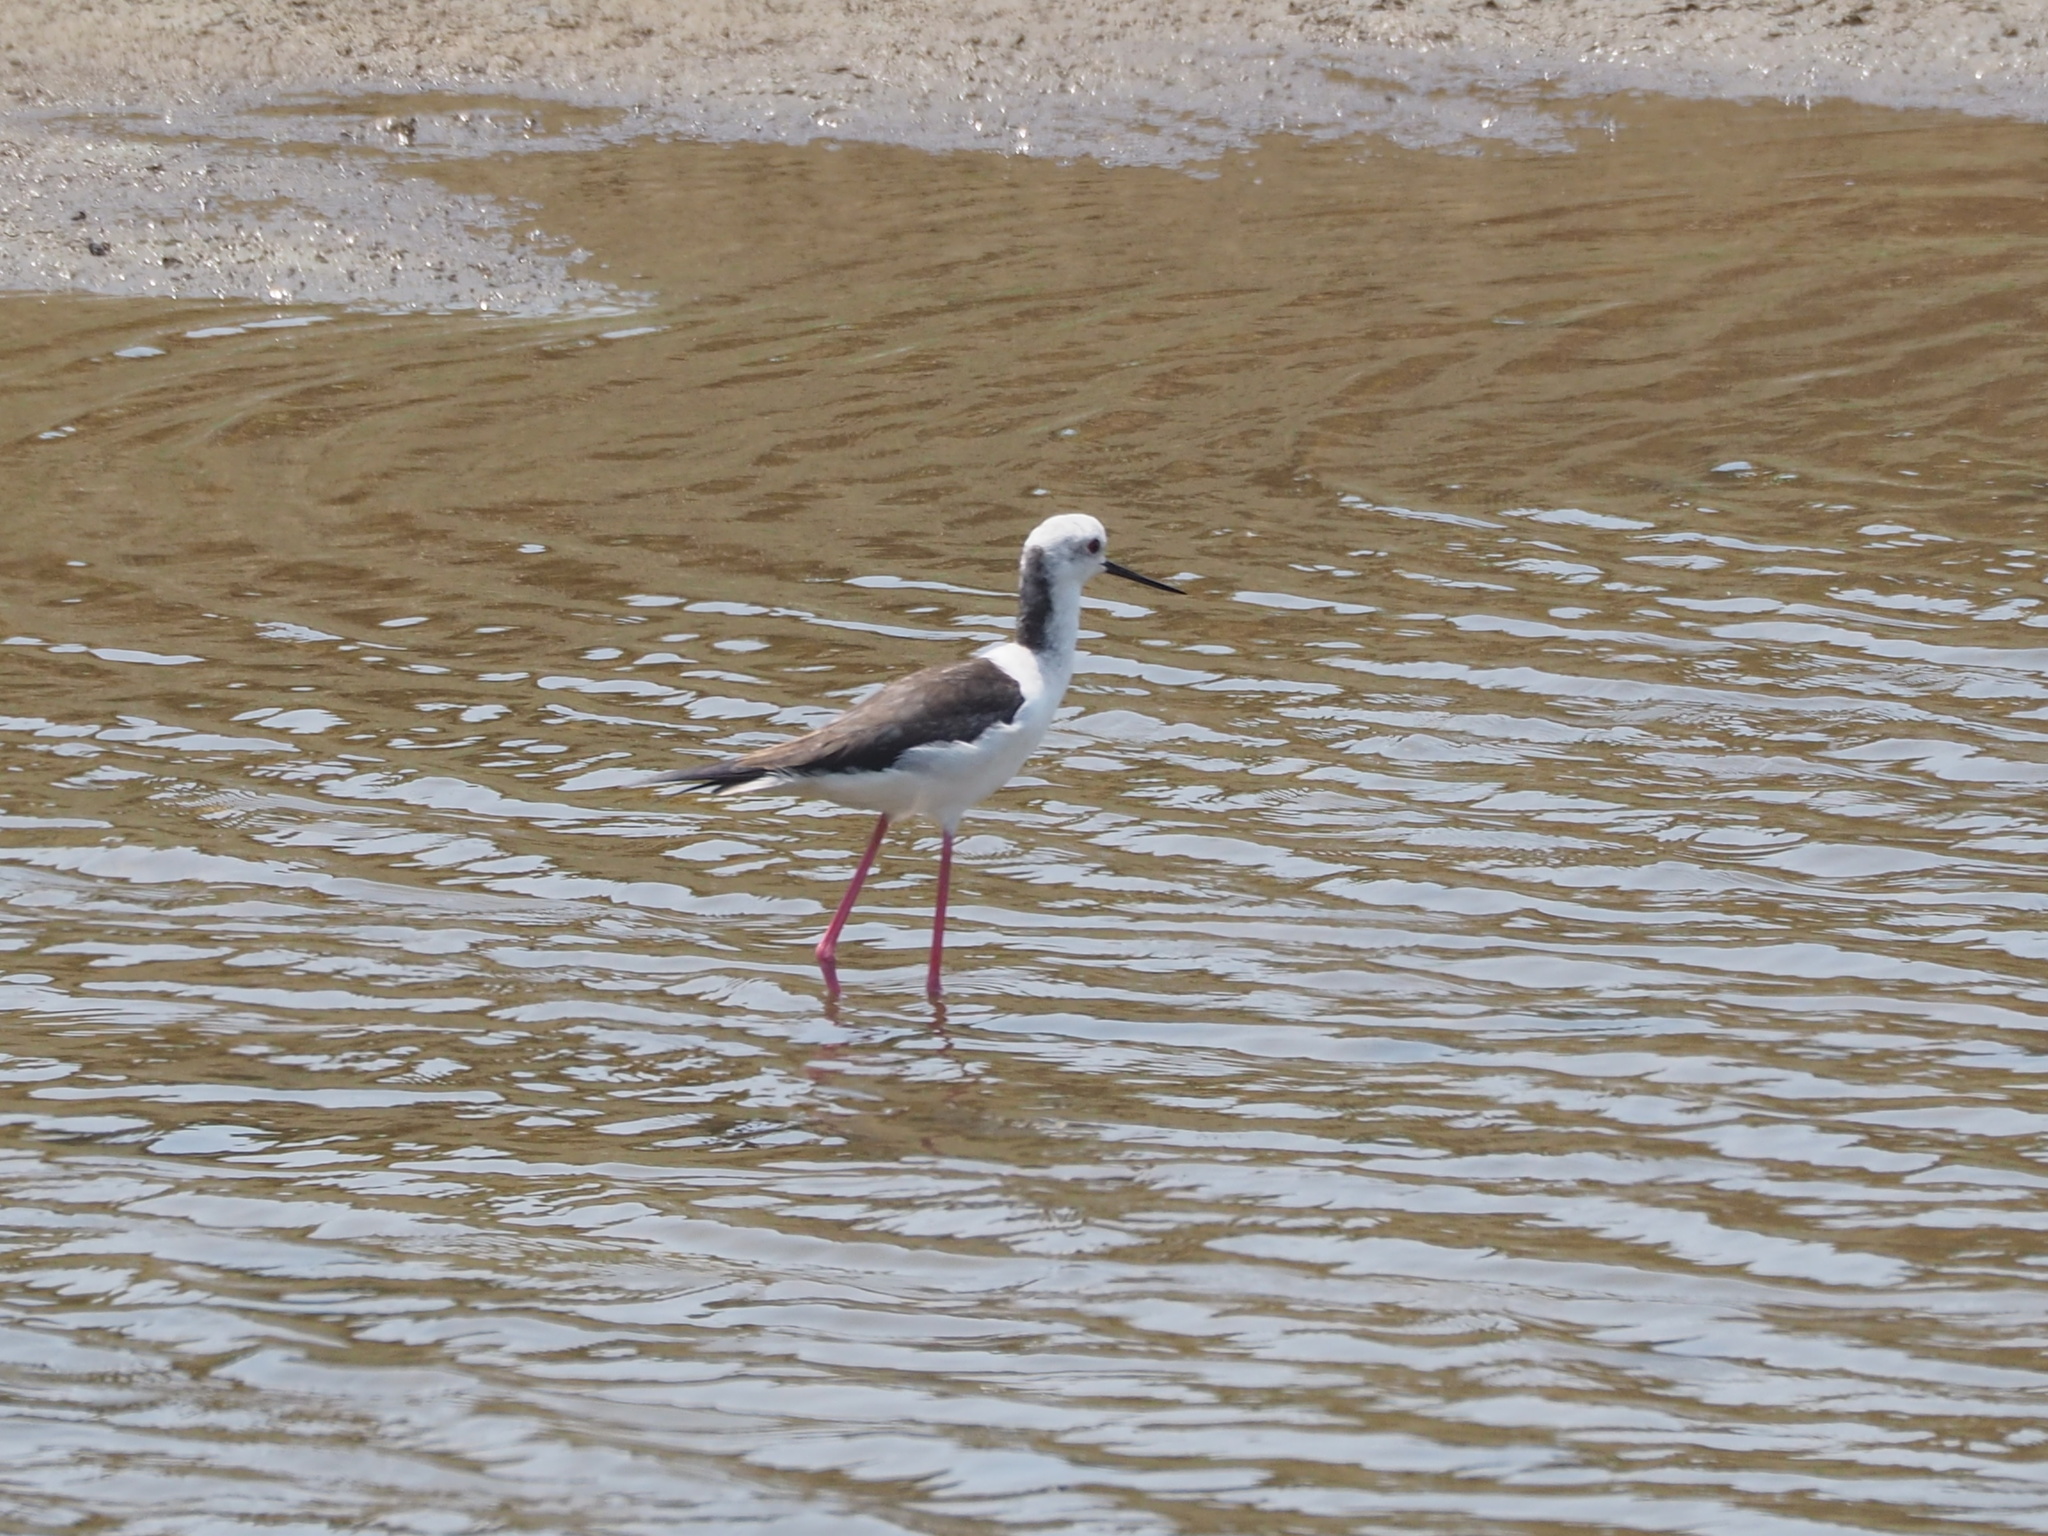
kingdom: Animalia
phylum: Chordata
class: Aves
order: Charadriiformes
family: Recurvirostridae
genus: Himantopus
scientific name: Himantopus himantopus
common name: Black-winged stilt
